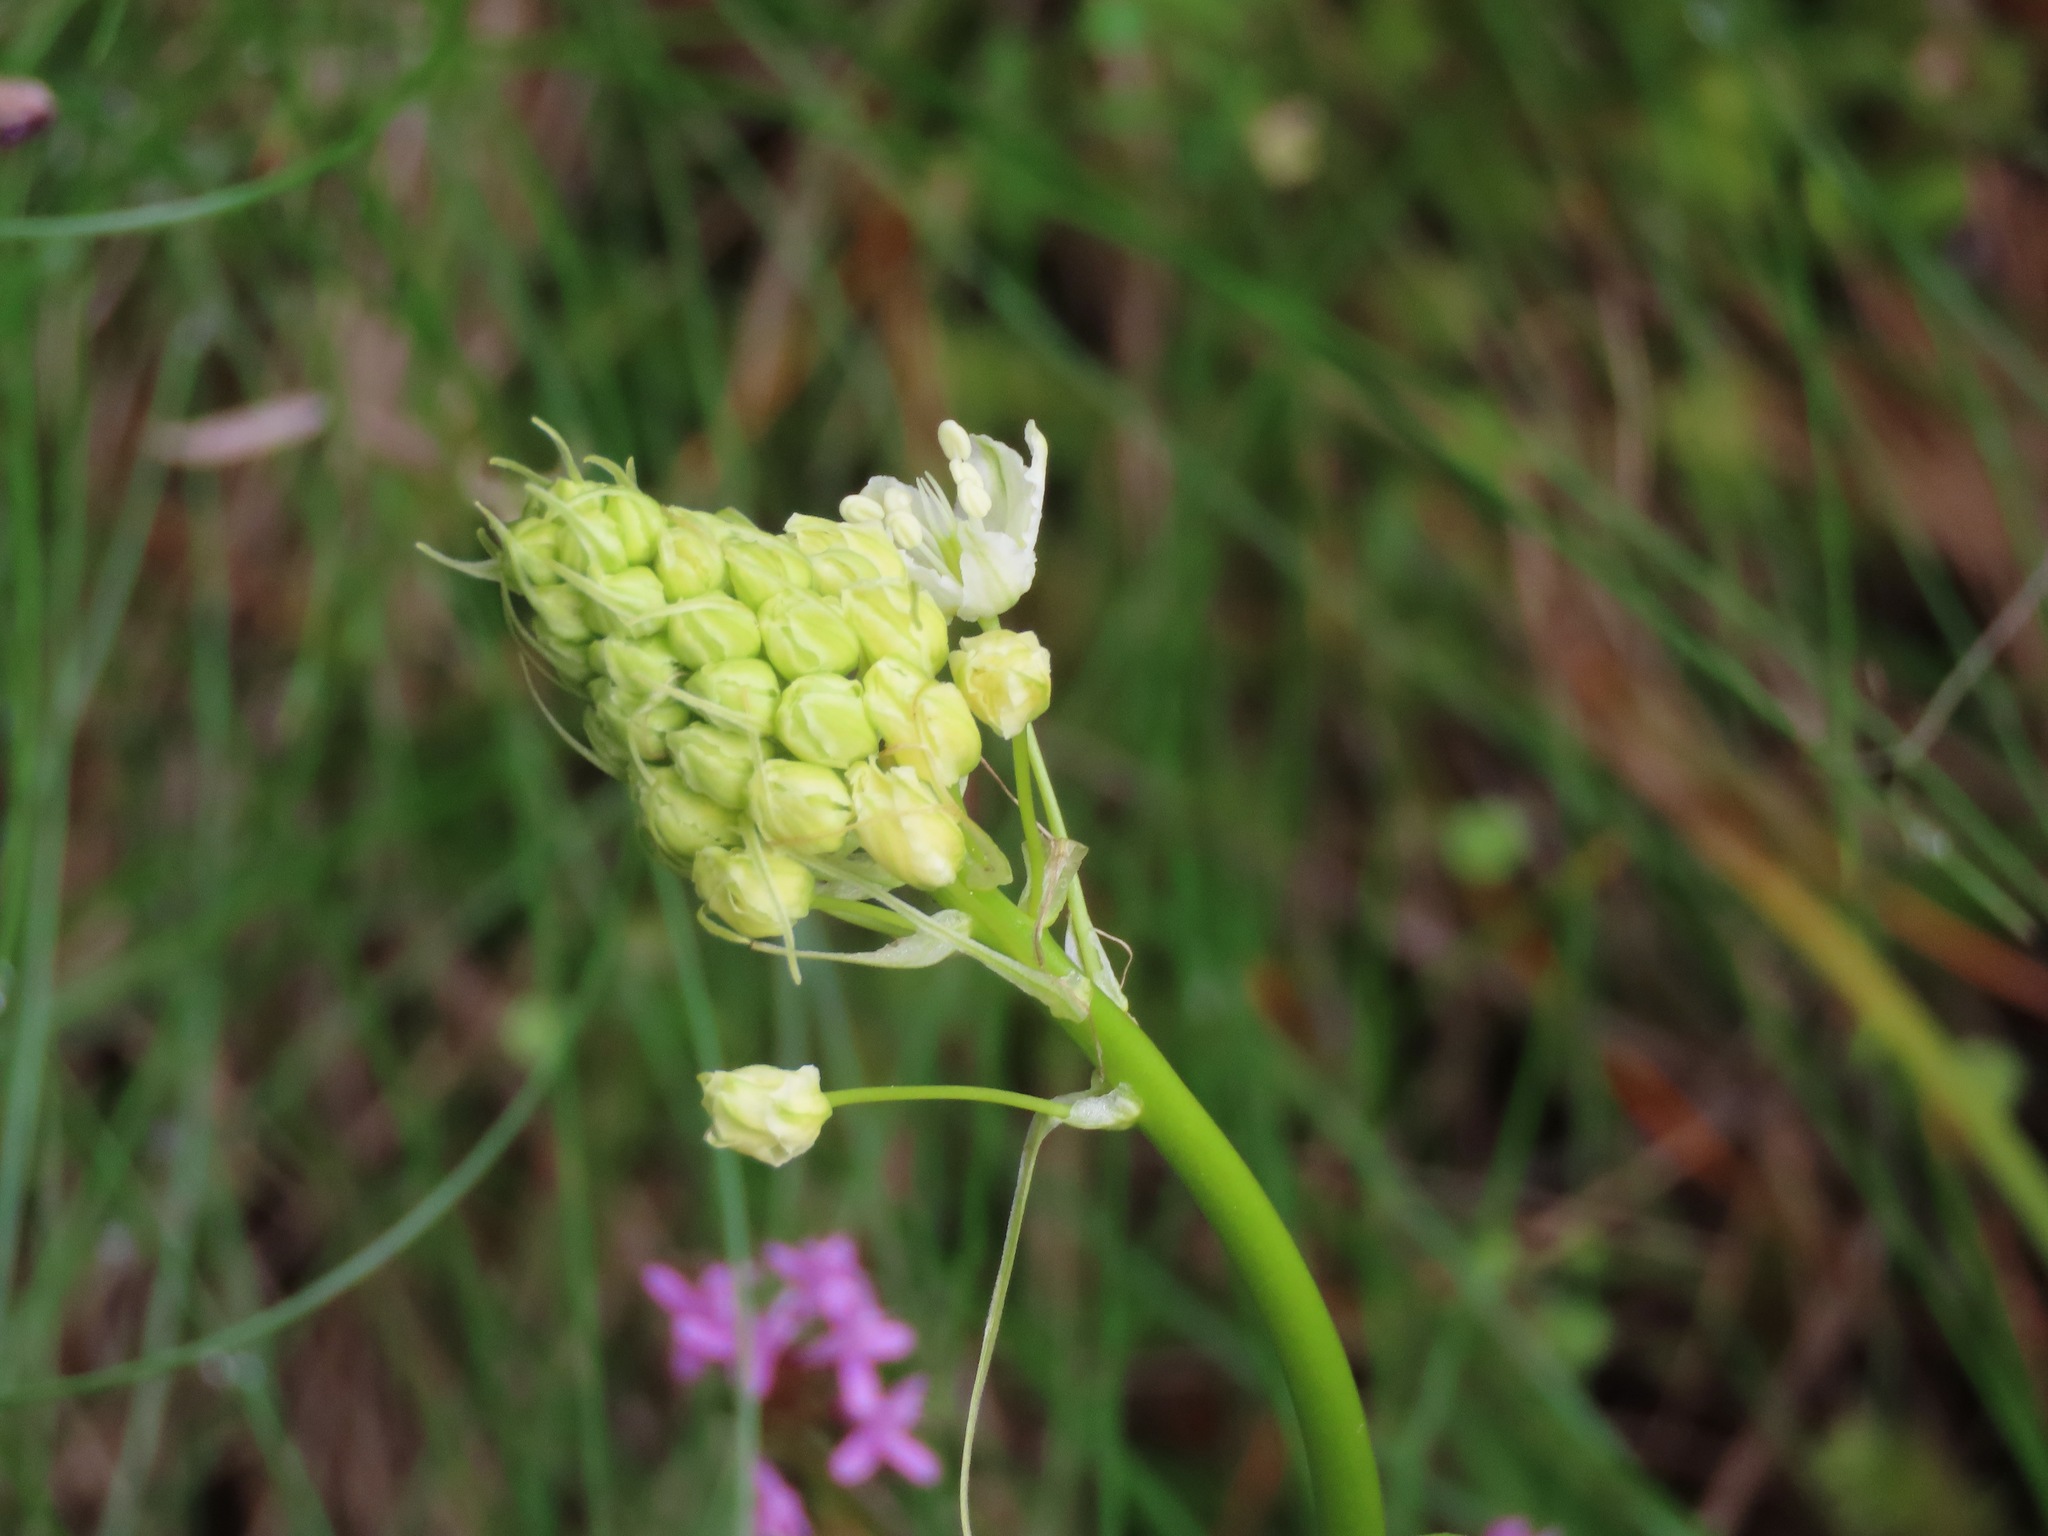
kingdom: Plantae
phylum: Tracheophyta
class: Liliopsida
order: Liliales
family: Melanthiaceae
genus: Toxicoscordion
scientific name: Toxicoscordion venenosum
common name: Meadow death camas
